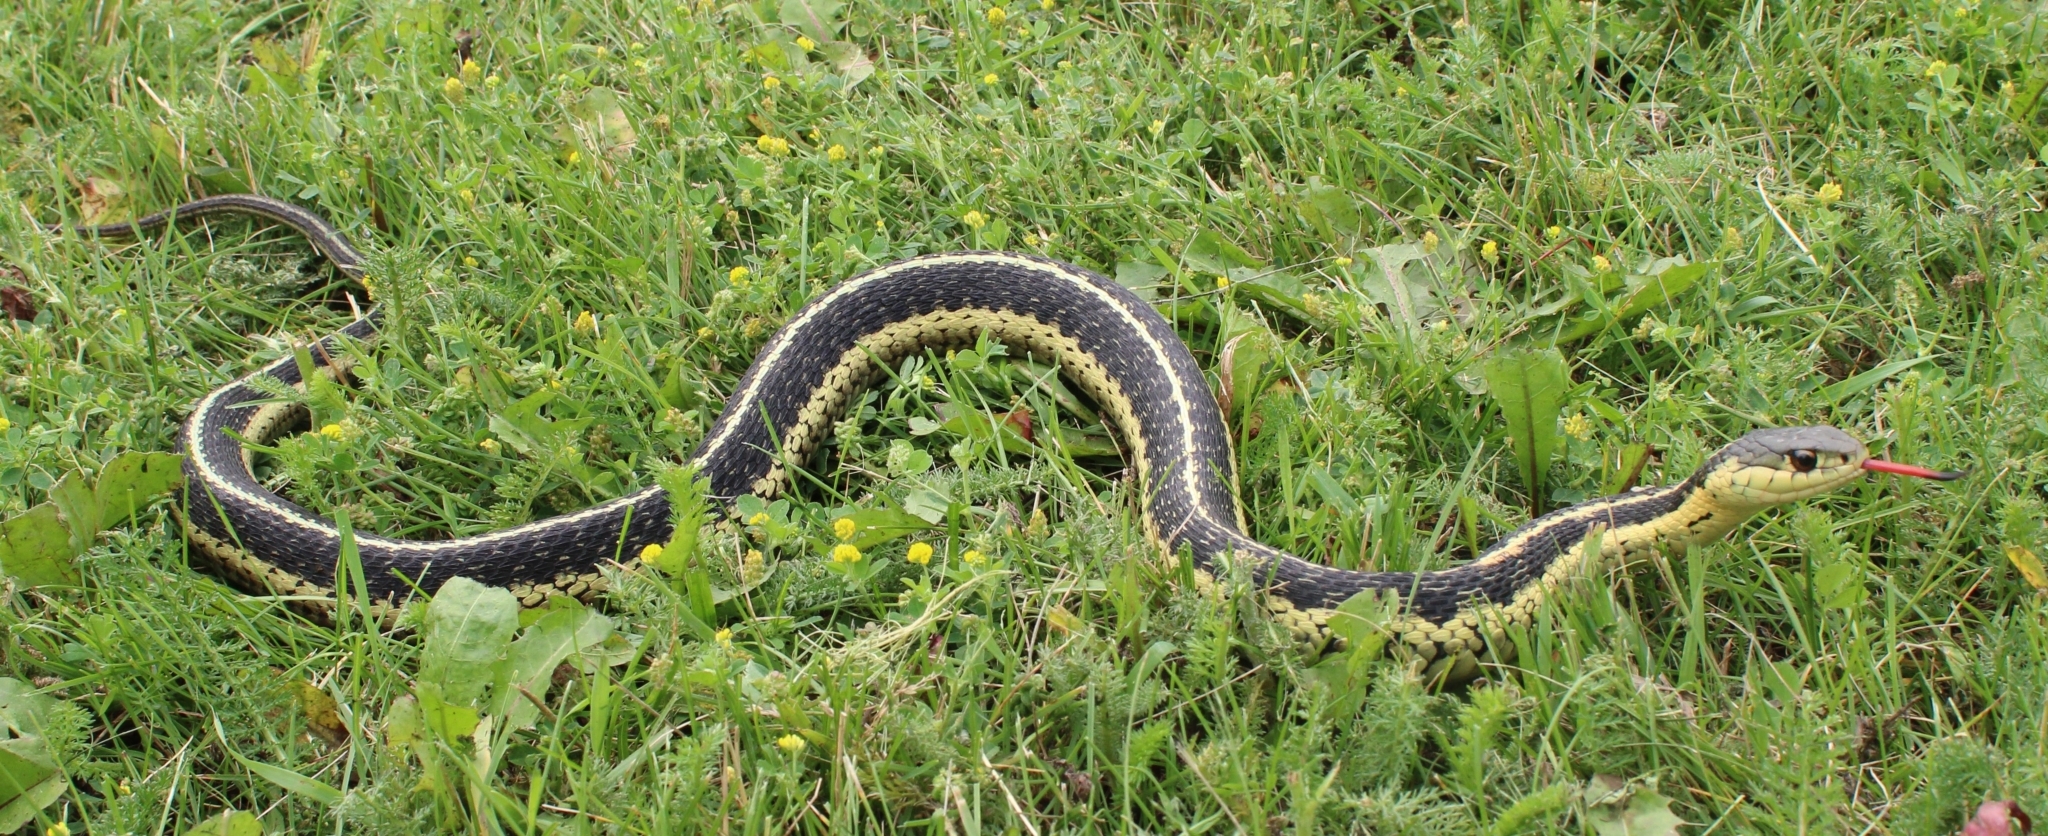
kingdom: Animalia
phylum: Chordata
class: Squamata
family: Colubridae
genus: Thamnophis
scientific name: Thamnophis sirtalis
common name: Common garter snake
